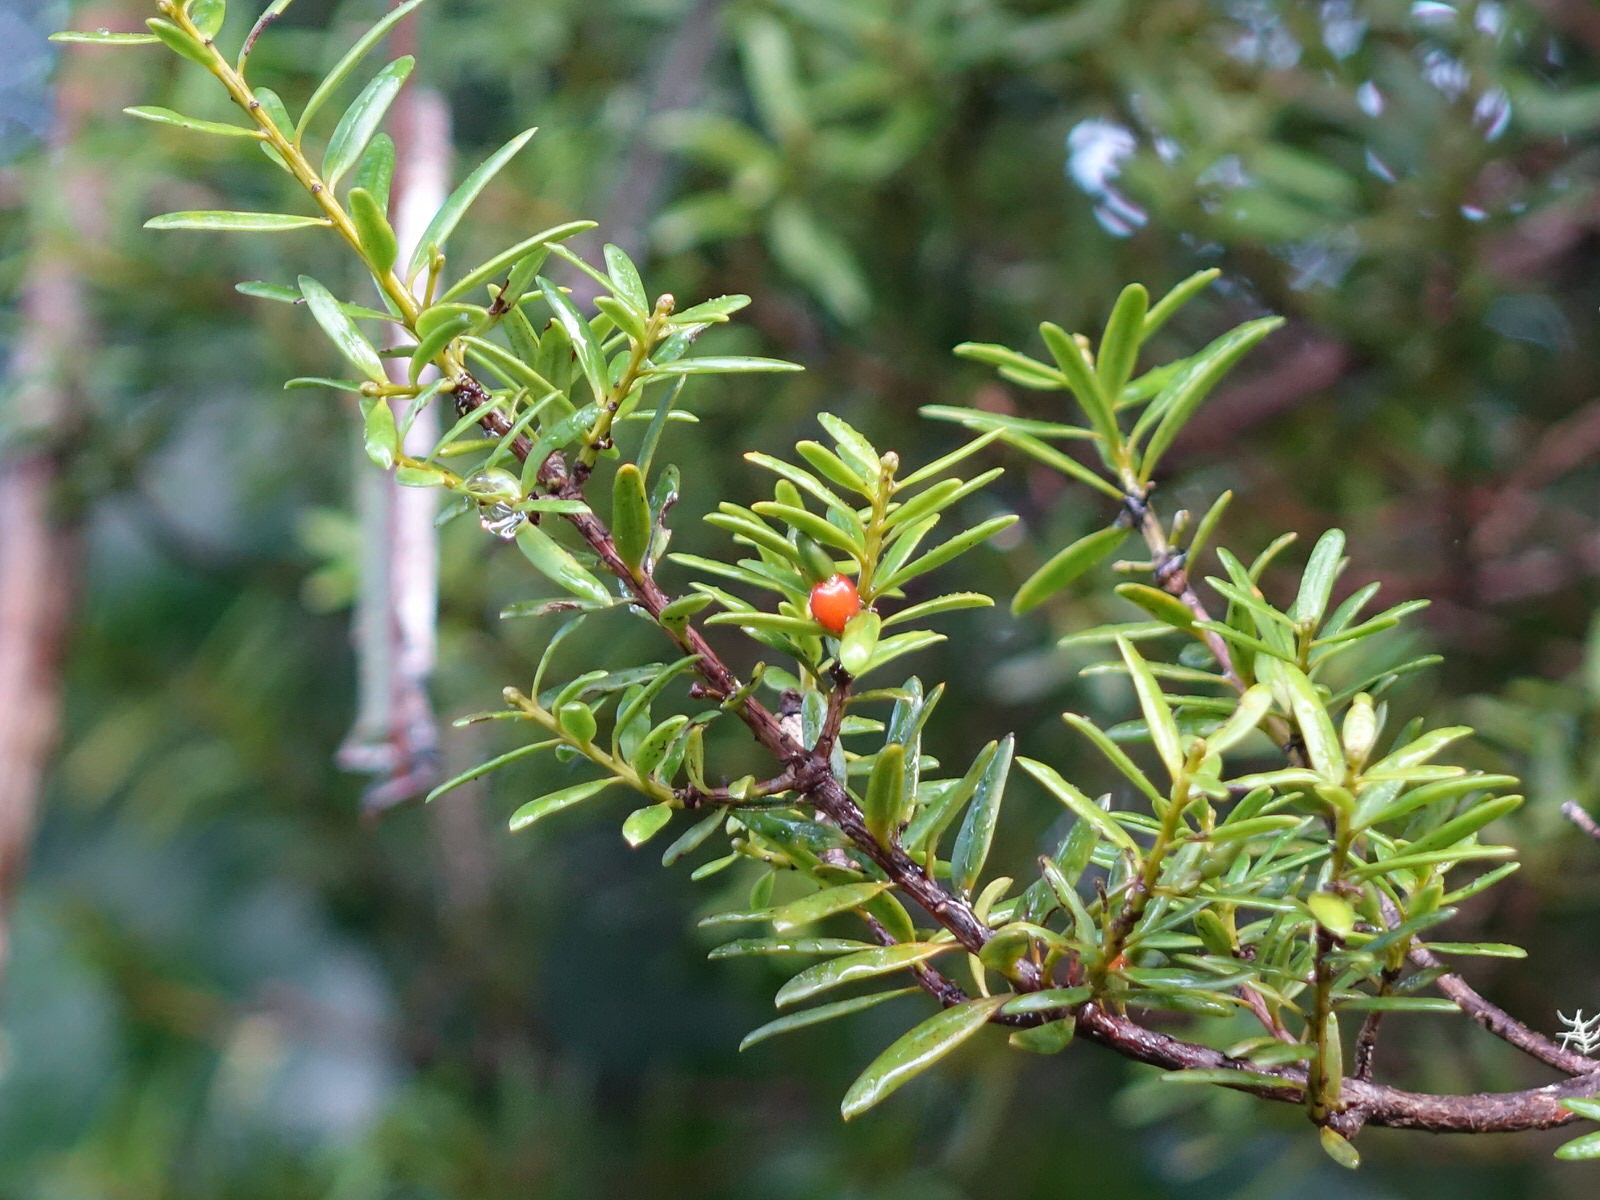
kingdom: Plantae
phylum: Tracheophyta
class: Pinopsida
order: Pinales
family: Podocarpaceae
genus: Podocarpus
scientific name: Podocarpus totara
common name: Totara
